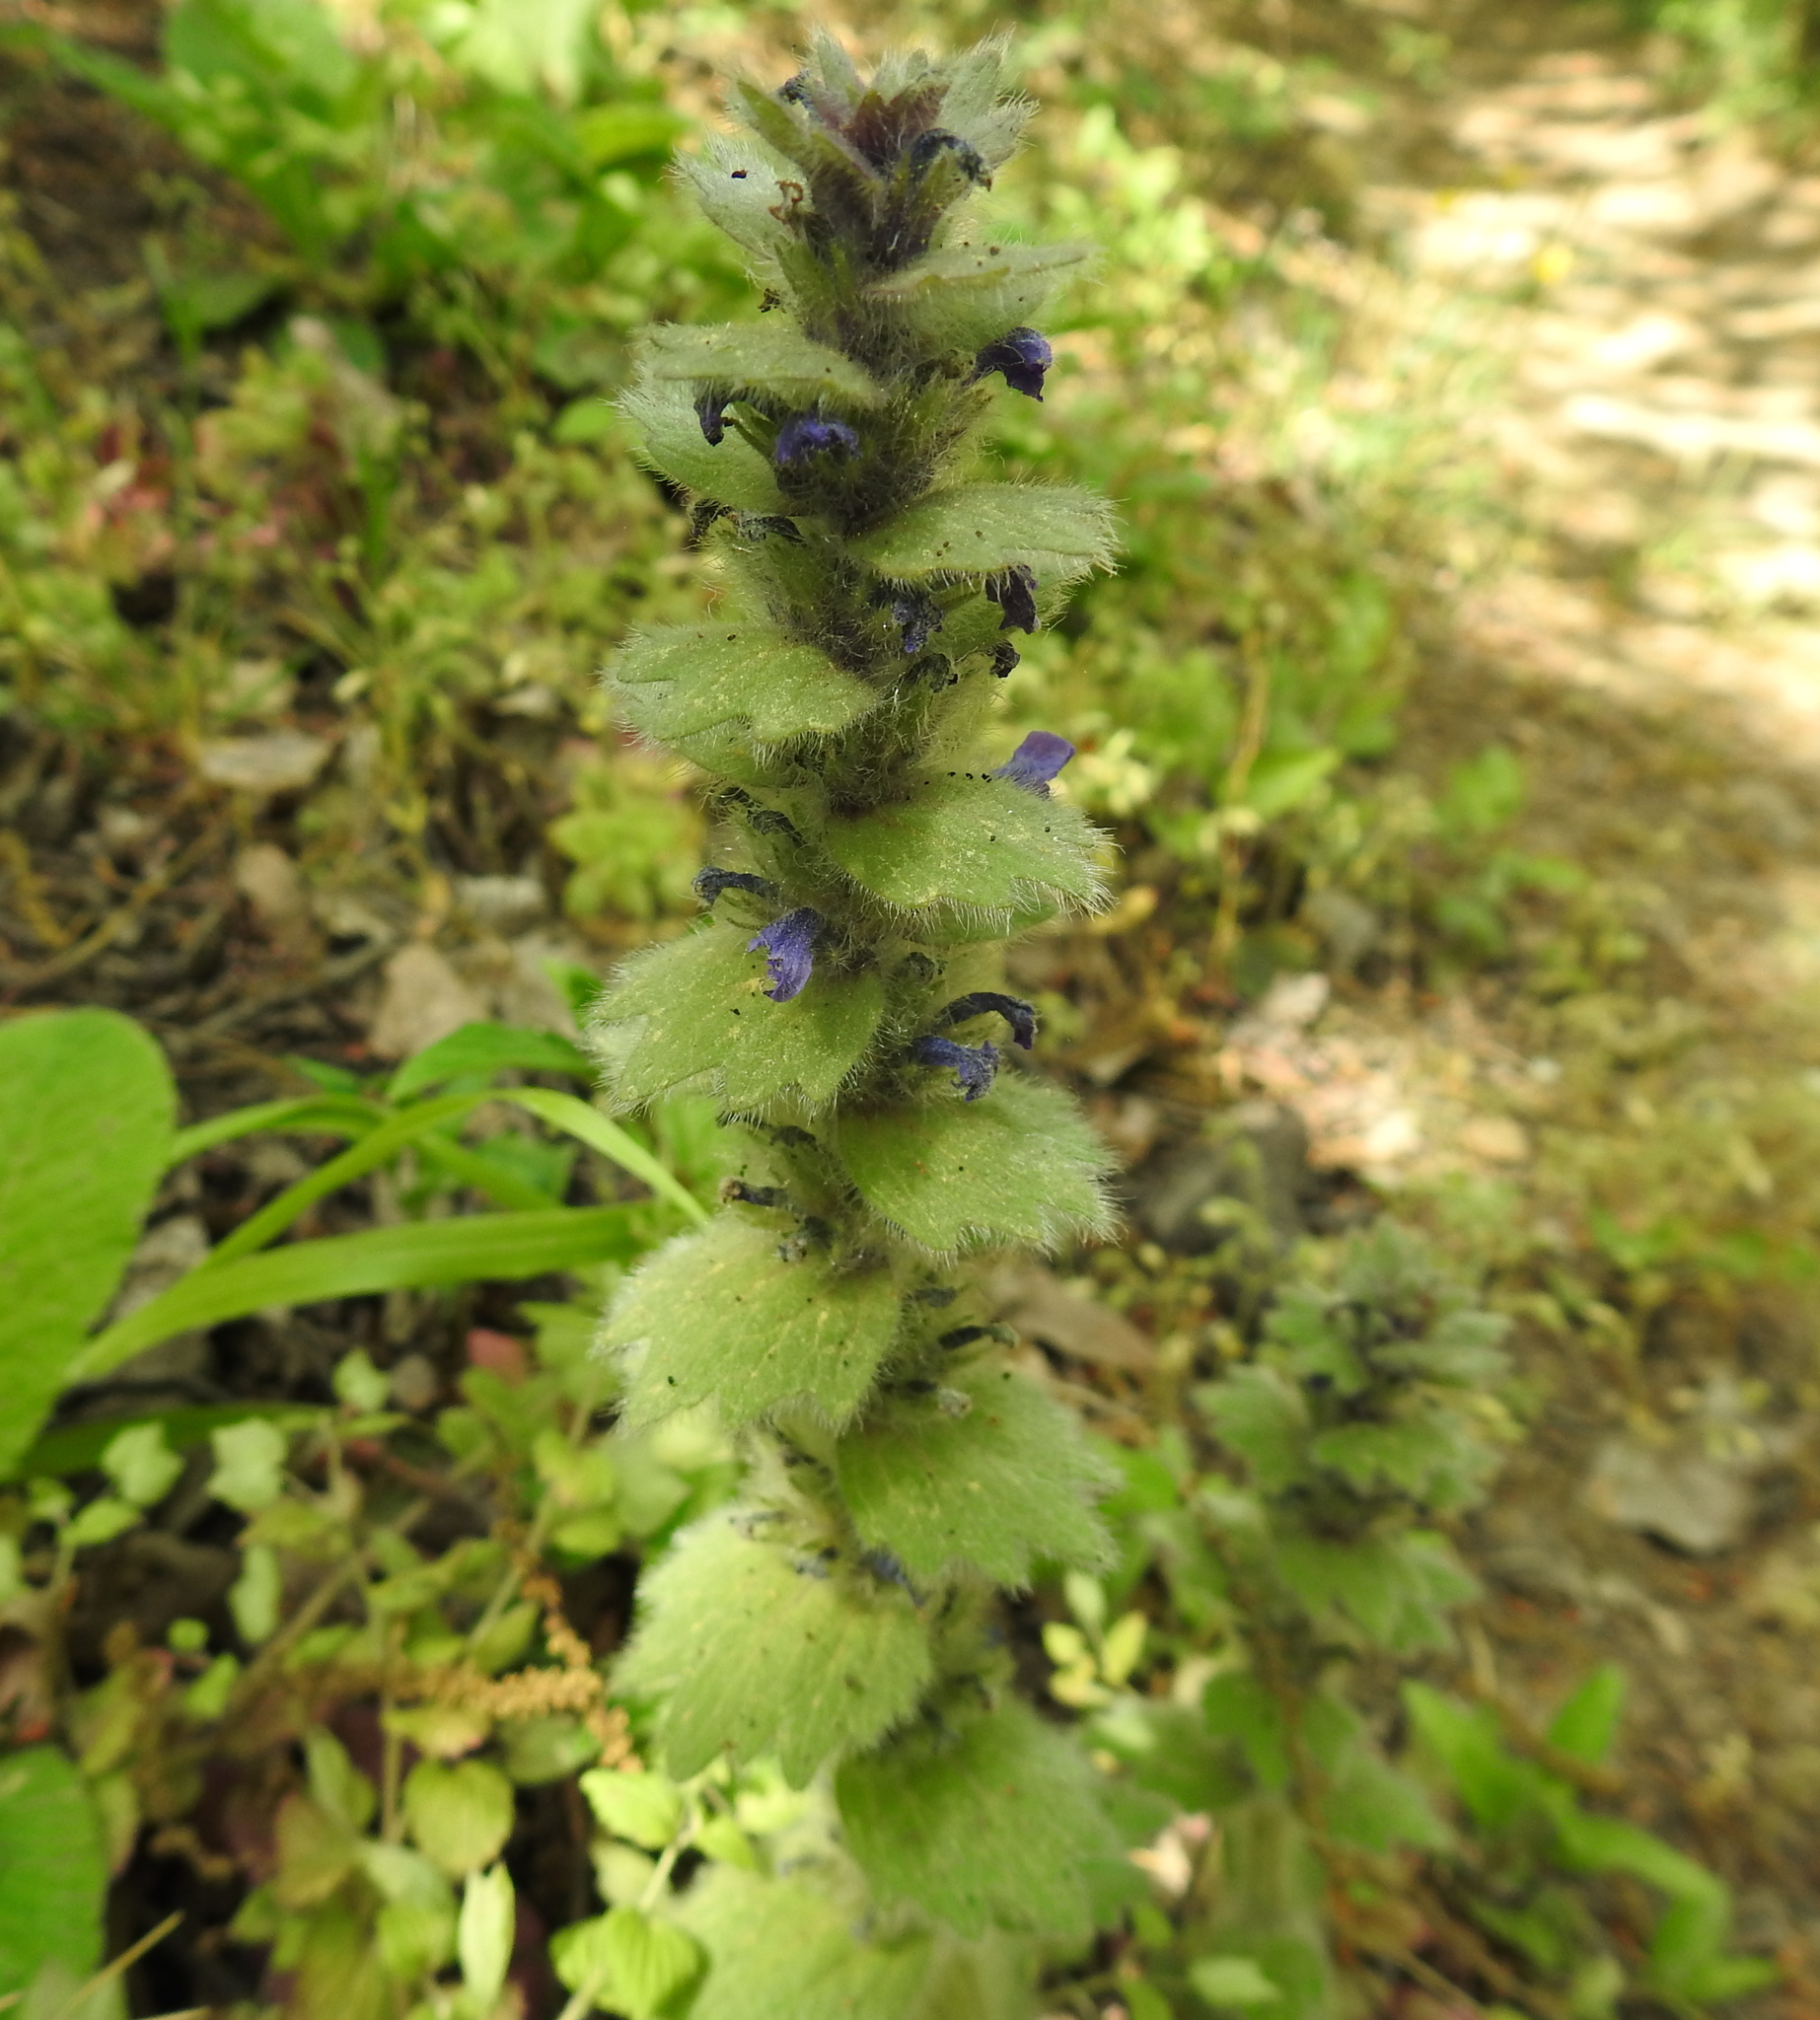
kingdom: Plantae
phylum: Tracheophyta
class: Magnoliopsida
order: Lamiales
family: Lamiaceae
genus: Ajuga
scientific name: Ajuga orientalis
